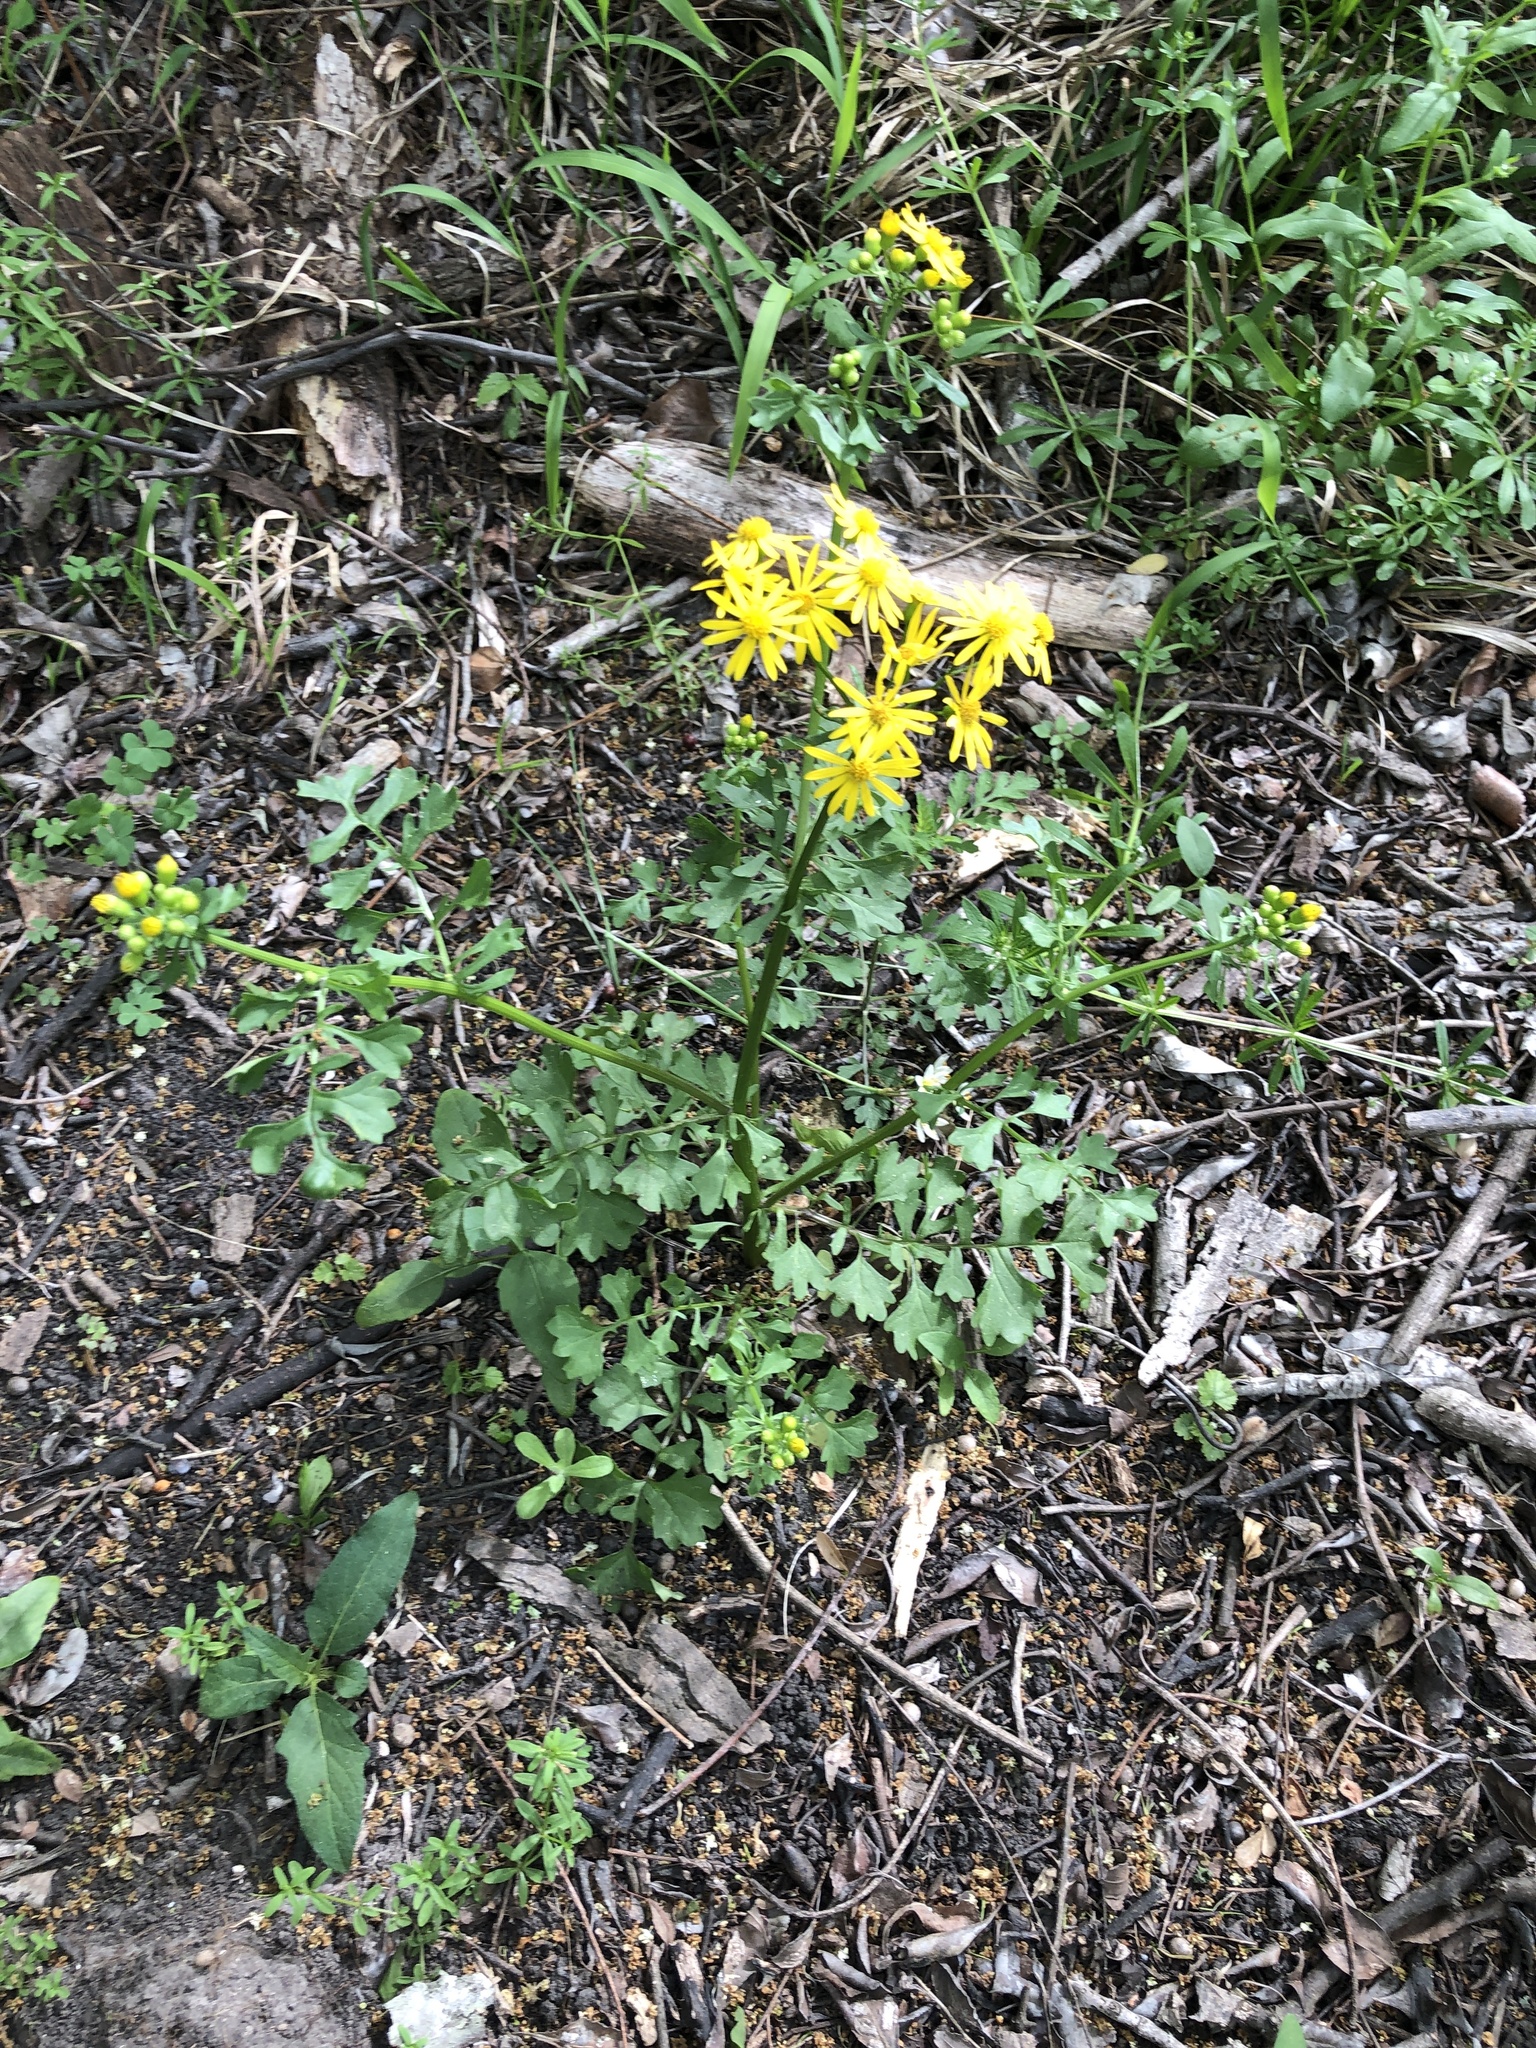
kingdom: Plantae
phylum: Tracheophyta
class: Magnoliopsida
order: Asterales
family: Asteraceae
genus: Packera
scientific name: Packera glabella
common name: Butterweed
